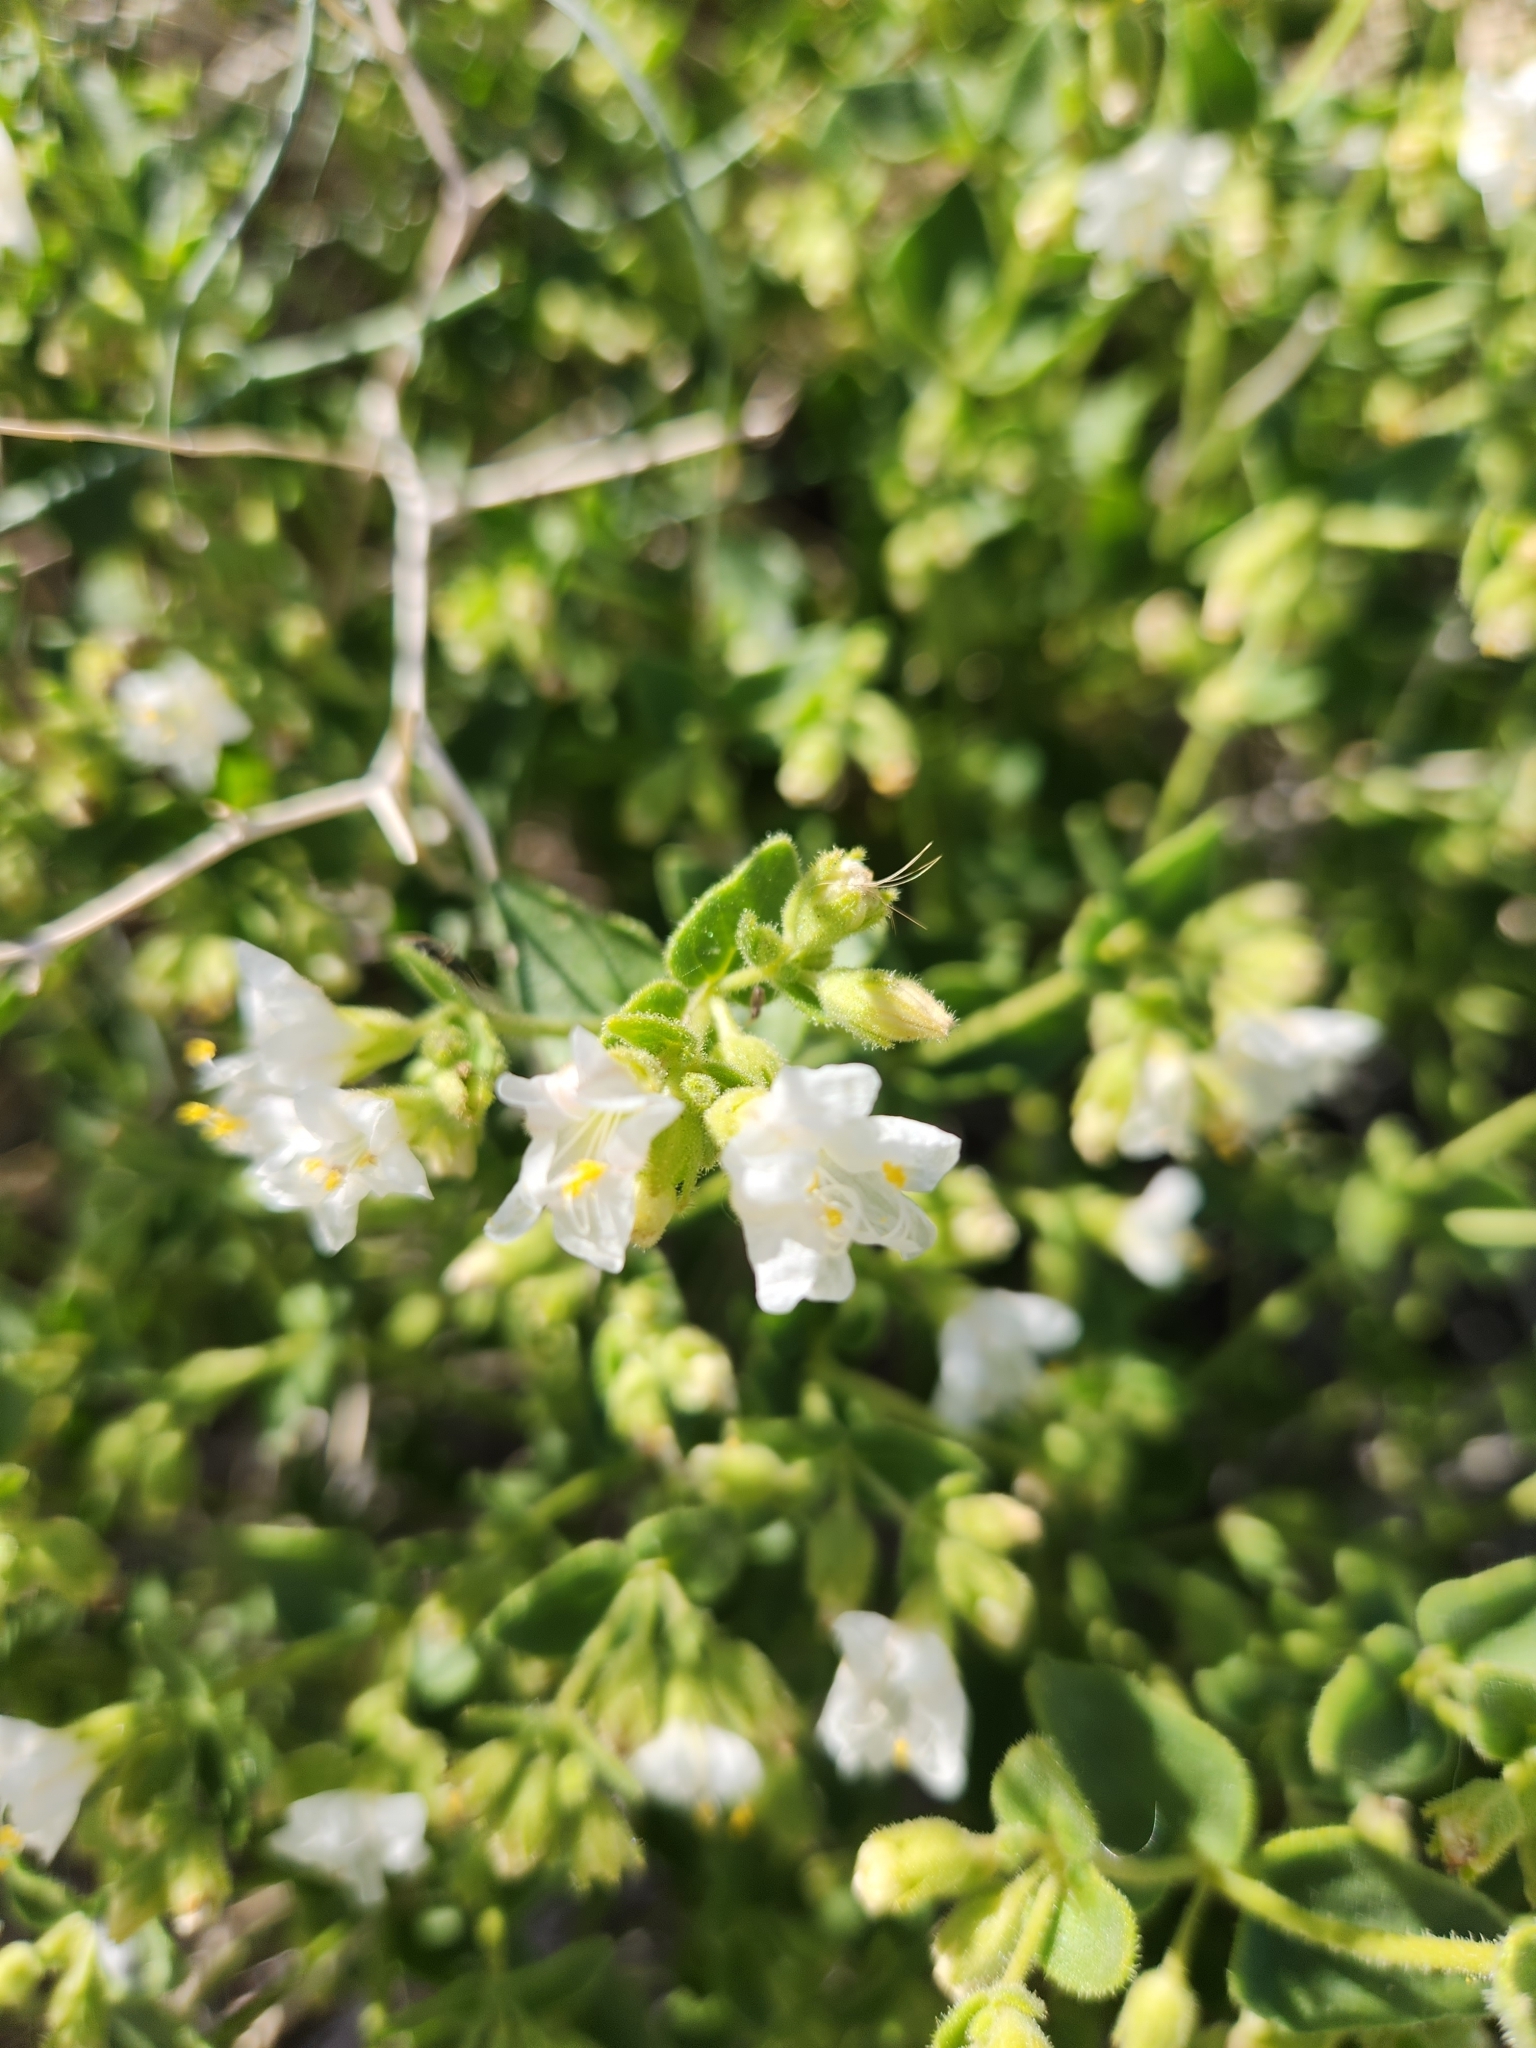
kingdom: Plantae
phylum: Tracheophyta
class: Magnoliopsida
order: Caryophyllales
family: Nyctaginaceae
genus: Mirabilis
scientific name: Mirabilis laevis
